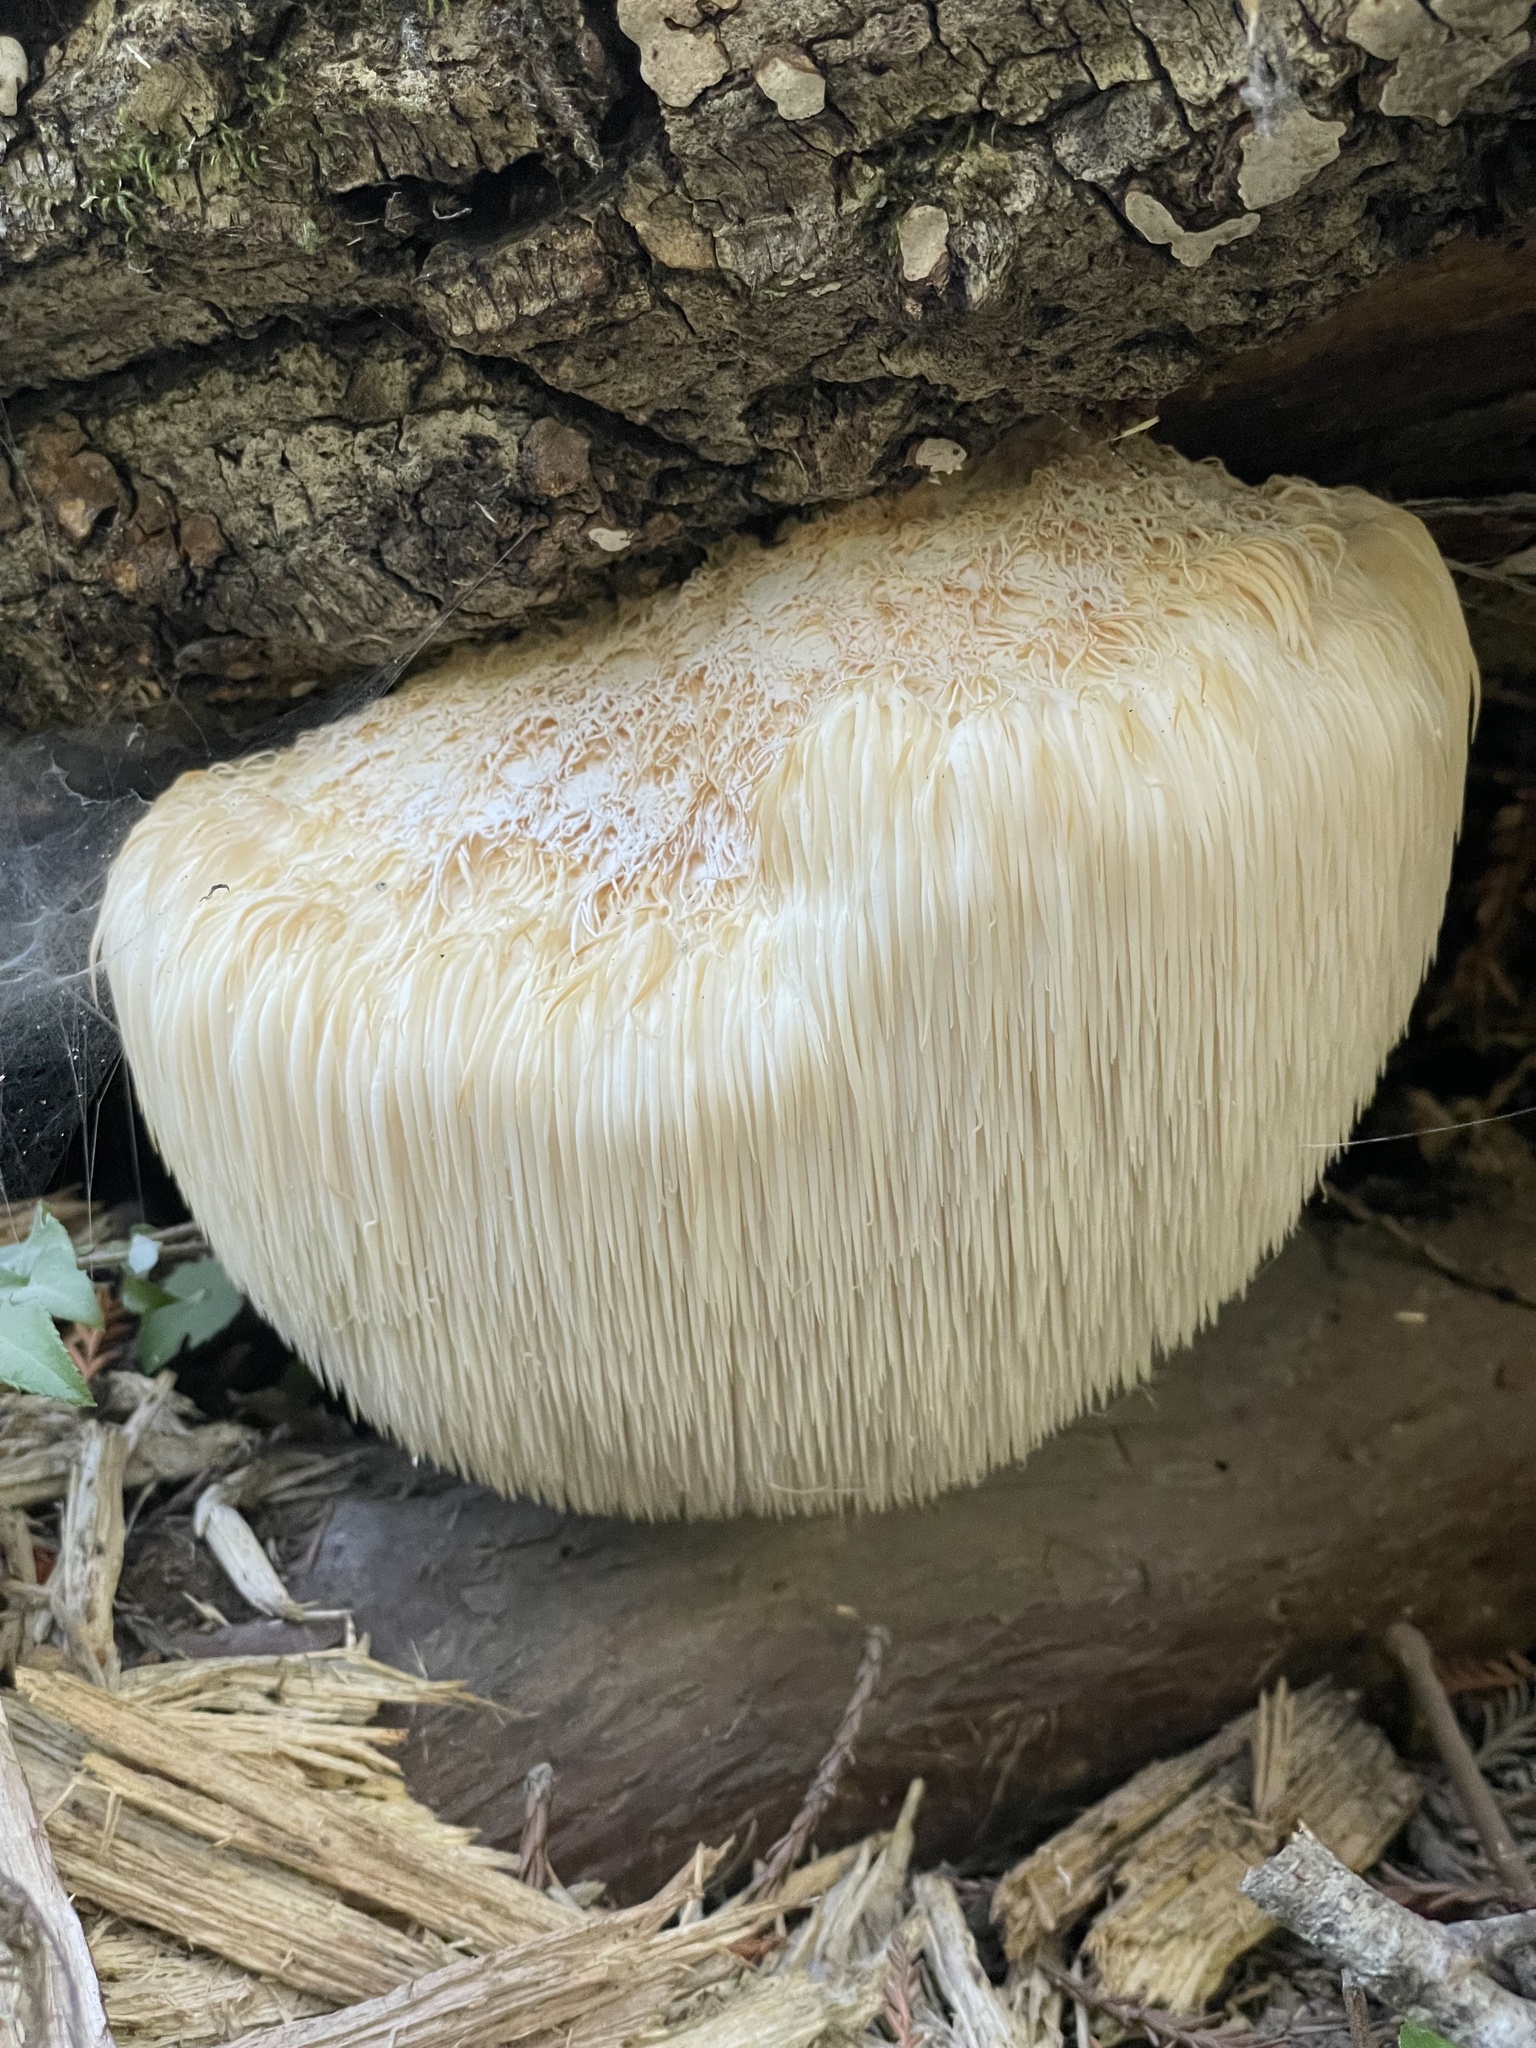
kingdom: Fungi
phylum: Basidiomycota
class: Agaricomycetes
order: Russulales
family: Hericiaceae
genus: Hericium
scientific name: Hericium erinaceus
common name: Bearded tooth
